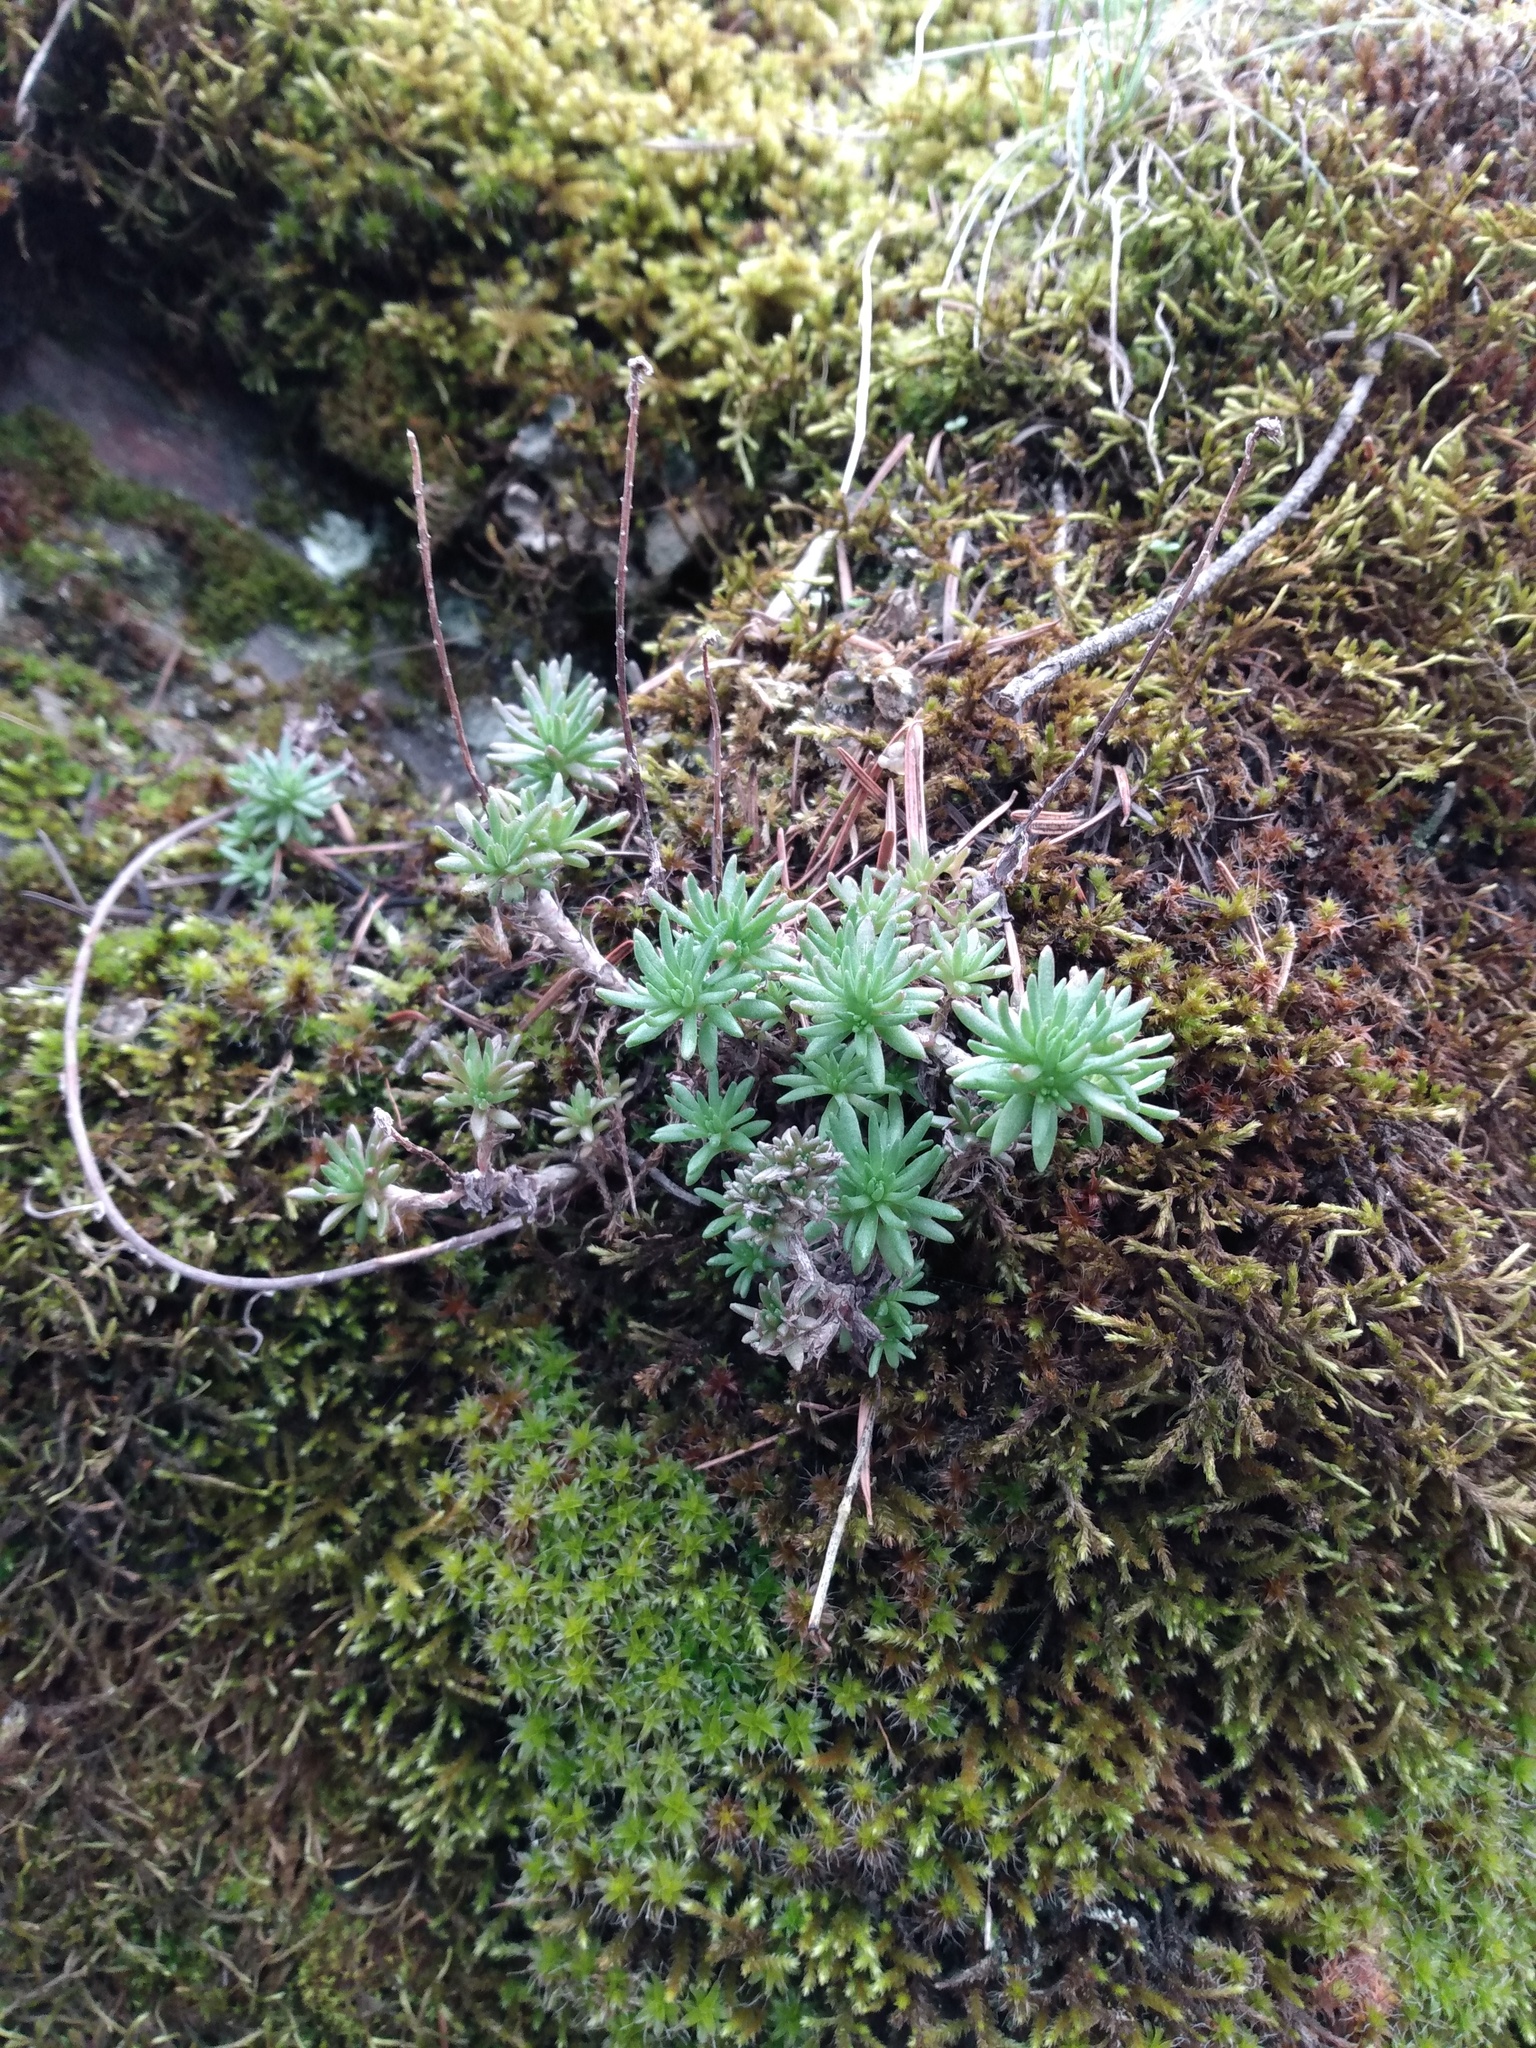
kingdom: Plantae
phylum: Tracheophyta
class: Magnoliopsida
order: Saxifragales
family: Crassulaceae
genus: Sedum
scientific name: Sedum stenopetalum
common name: Narrow-petaled stonecrop
